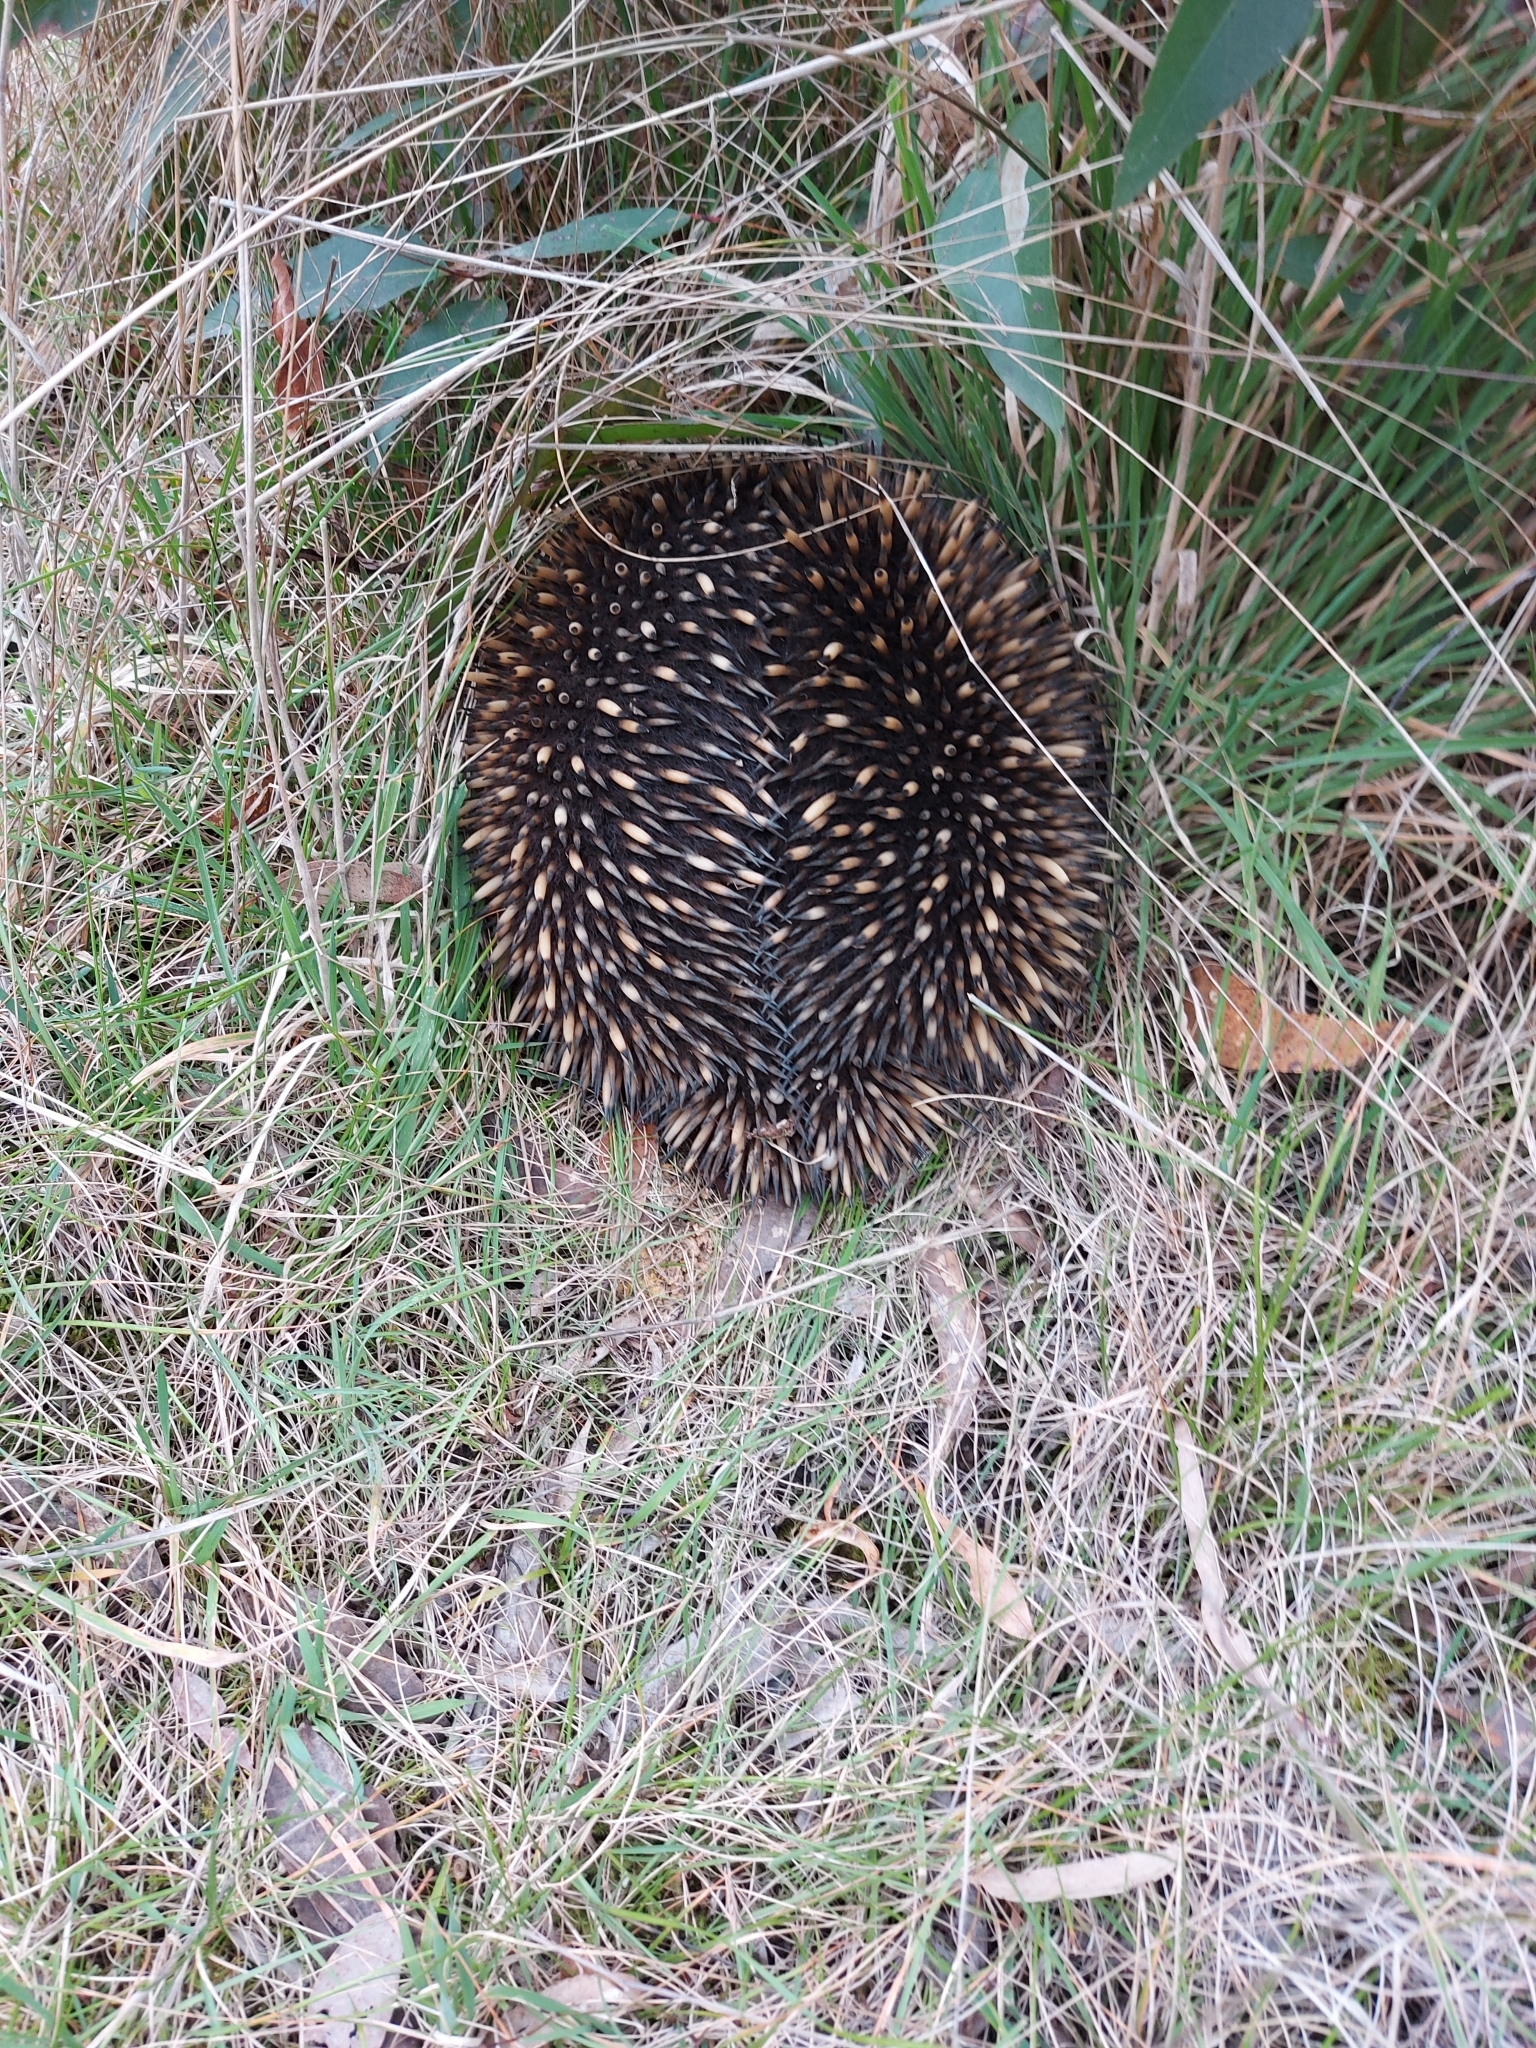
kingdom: Animalia
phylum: Chordata
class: Mammalia
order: Monotremata
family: Tachyglossidae
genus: Tachyglossus
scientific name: Tachyglossus aculeatus
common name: Short-beaked echidna
